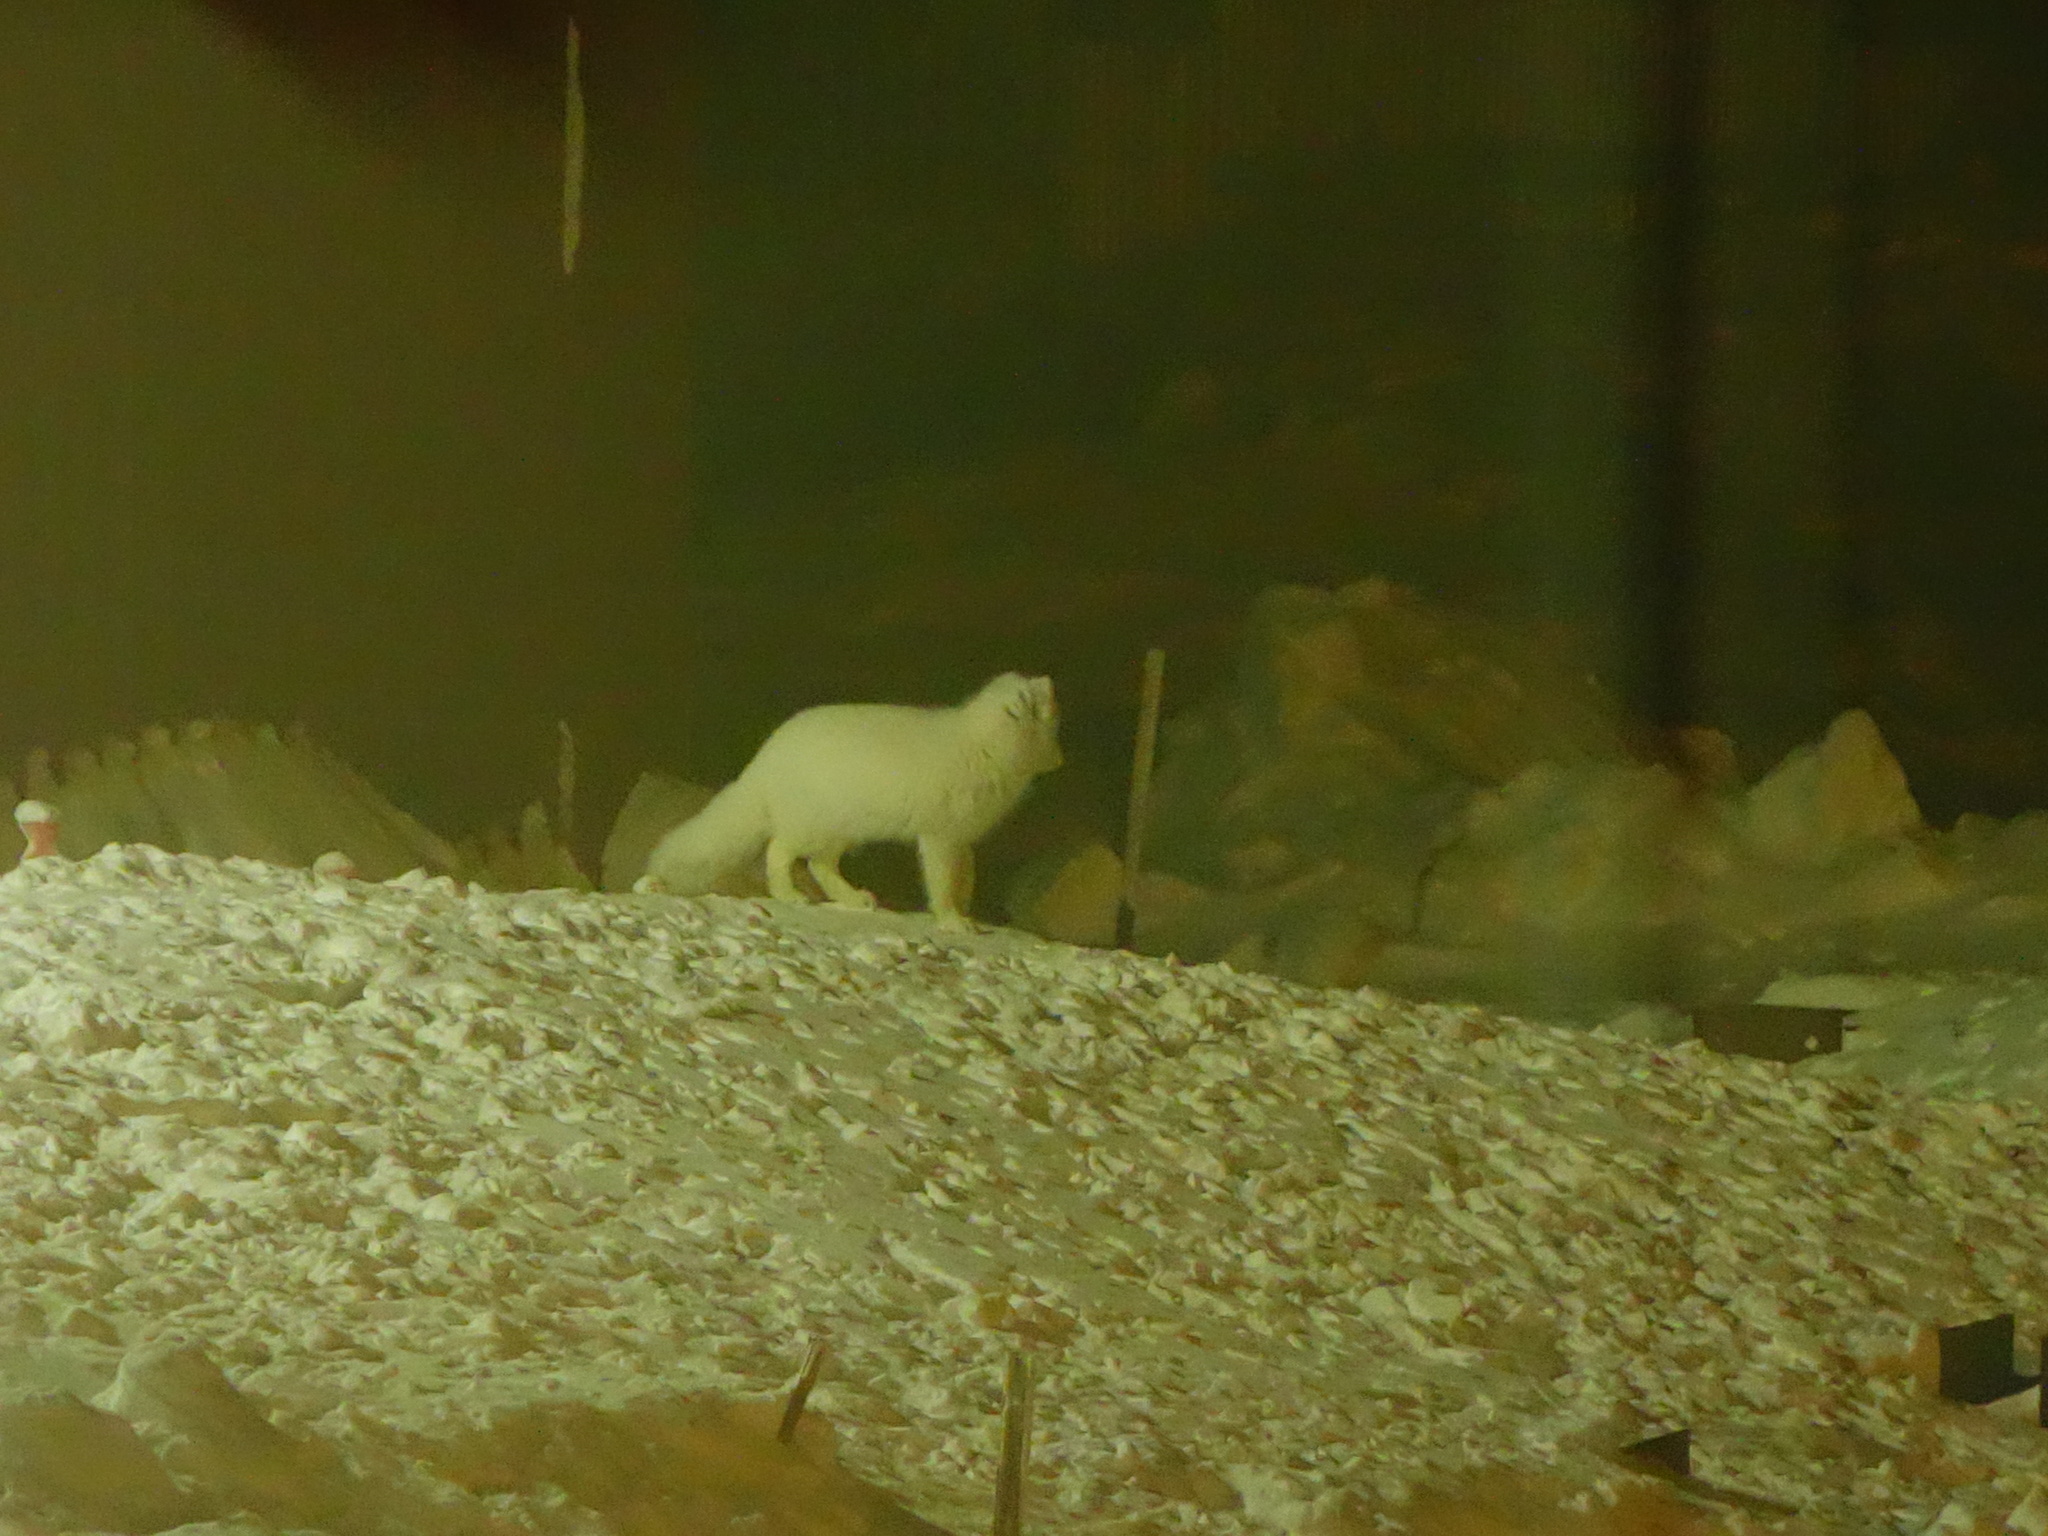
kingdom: Animalia
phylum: Chordata
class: Mammalia
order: Carnivora
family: Canidae
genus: Vulpes
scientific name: Vulpes lagopus
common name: Arctic fox
